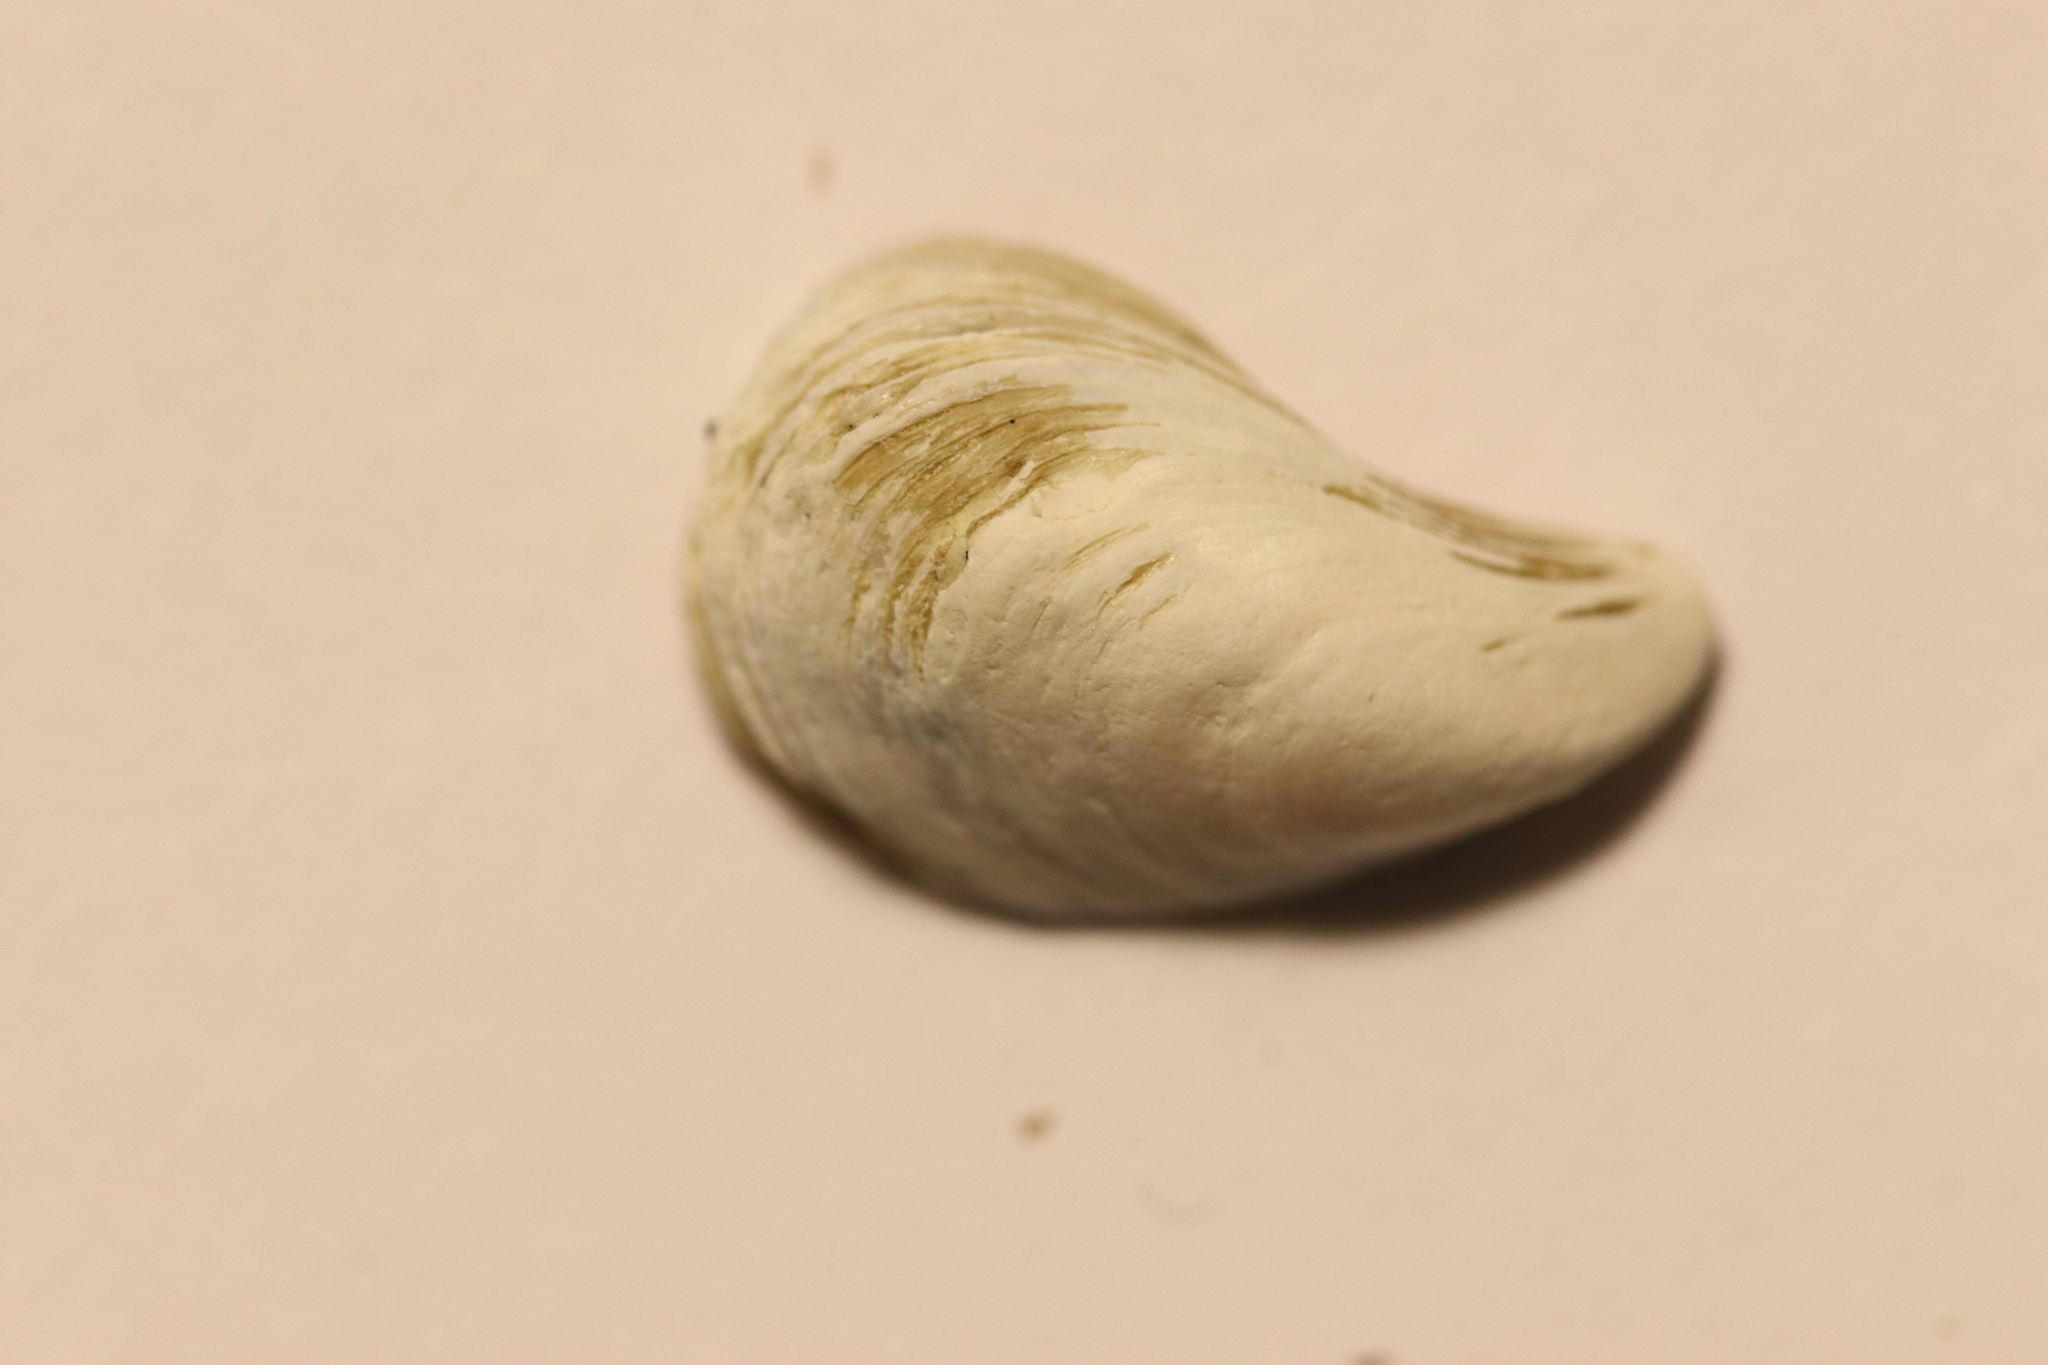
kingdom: Animalia
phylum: Mollusca
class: Bivalvia
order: Myida
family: Dreissenidae
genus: Dreissena
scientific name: Dreissena bugensis
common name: Quagga mussel
